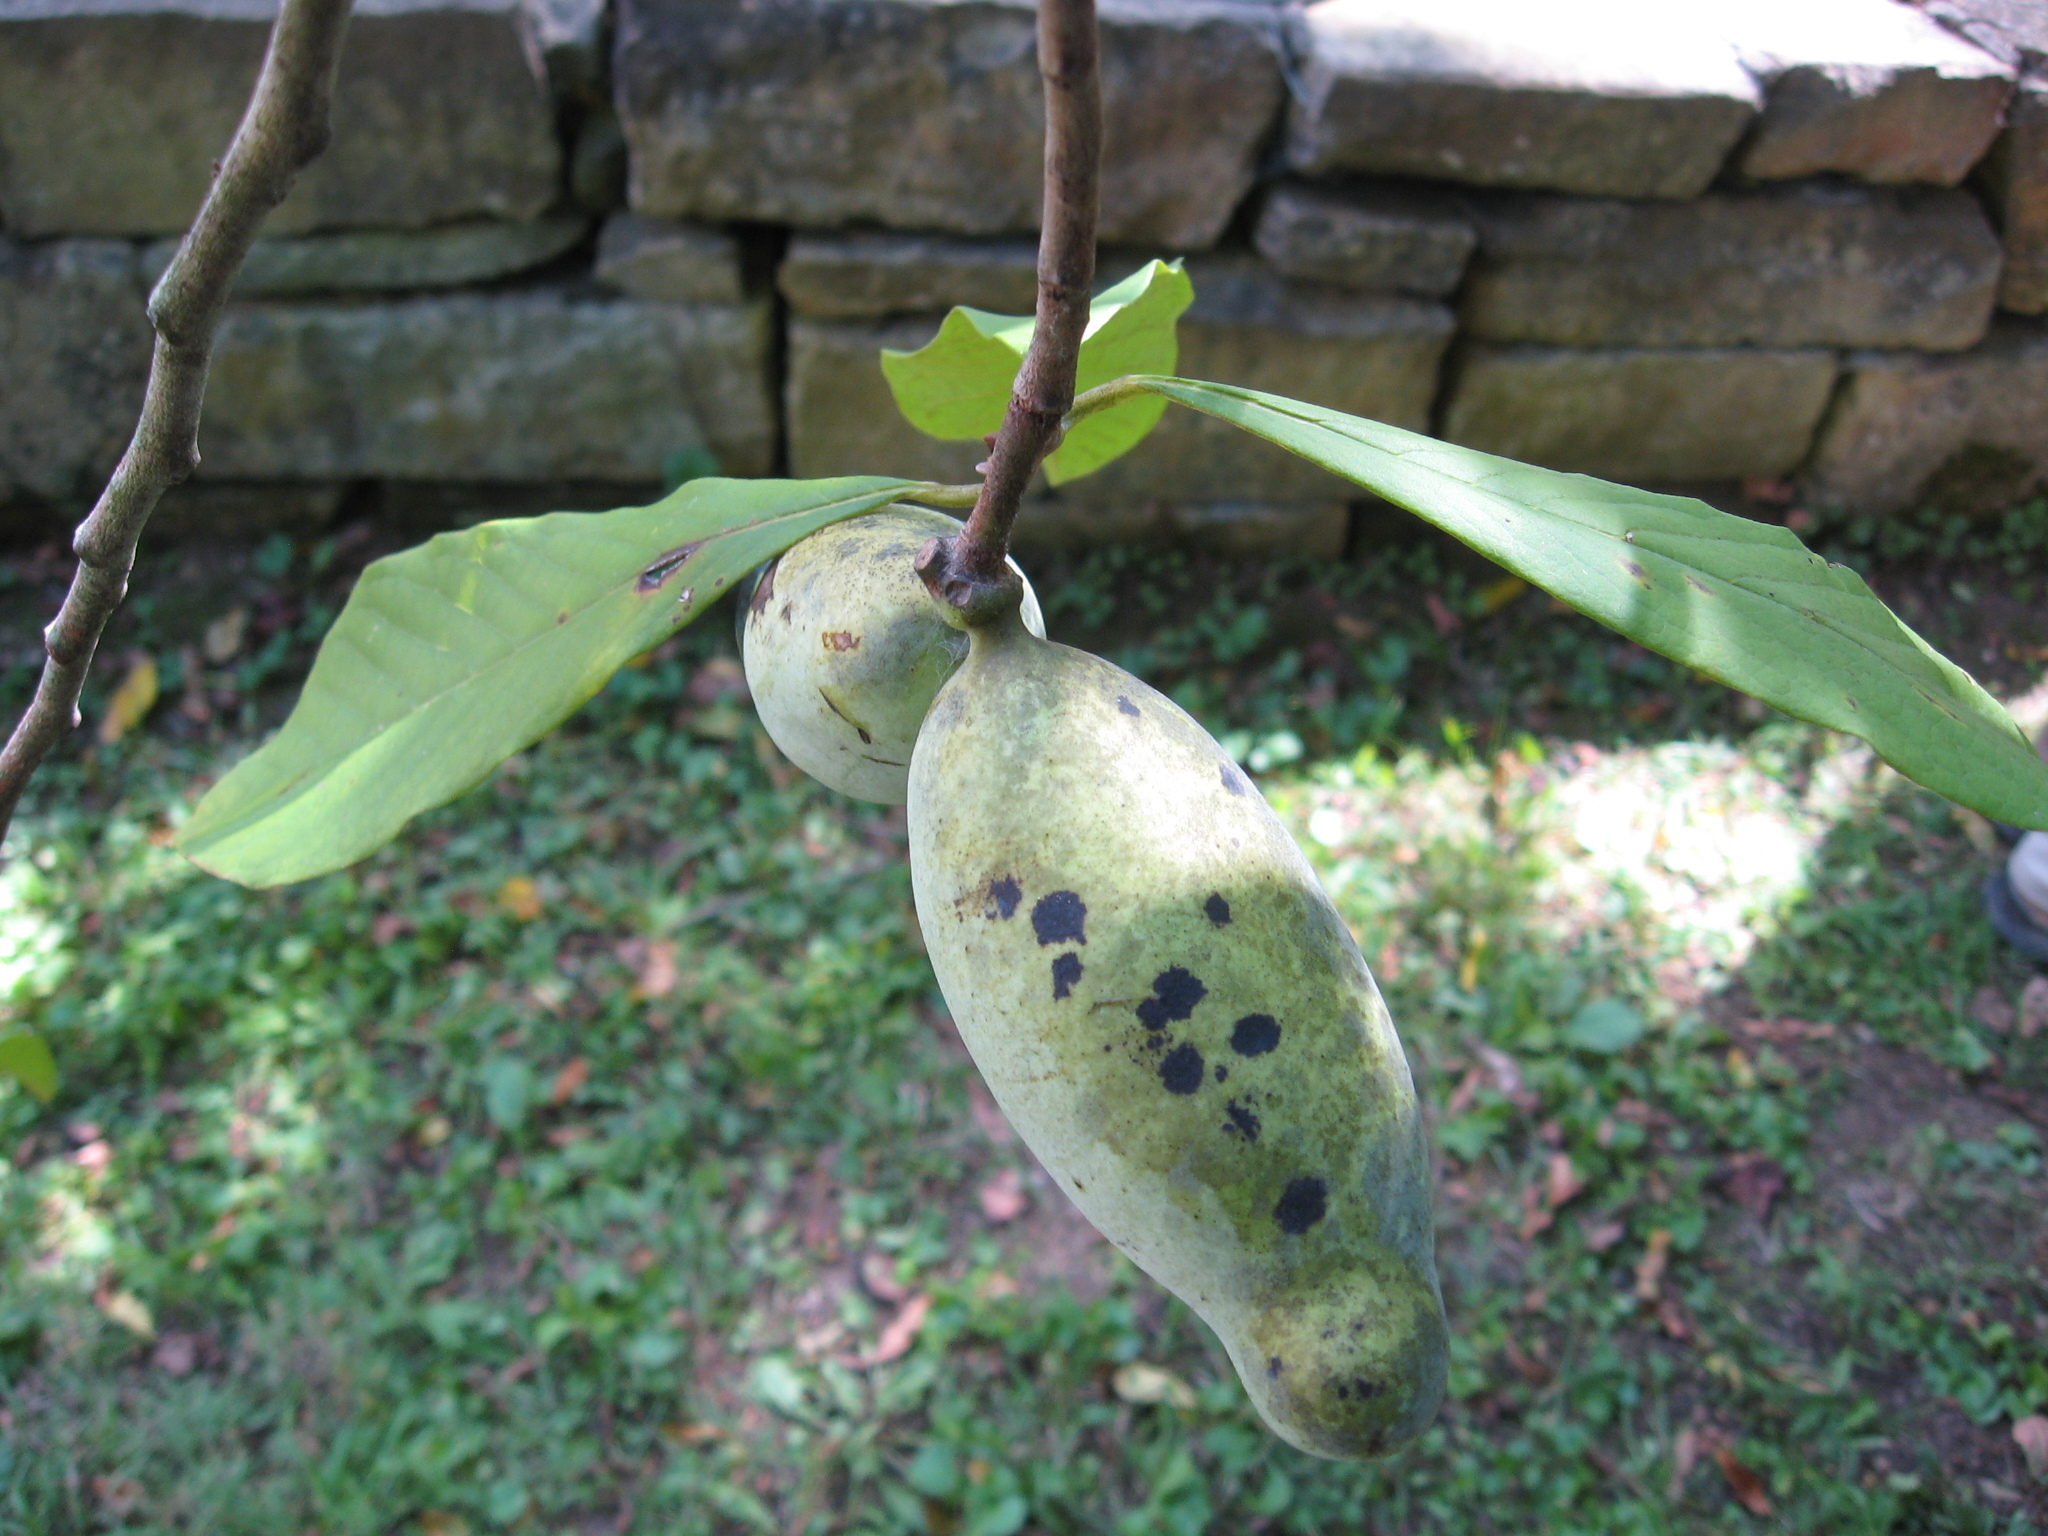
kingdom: Plantae
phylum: Tracheophyta
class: Magnoliopsida
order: Magnoliales
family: Annonaceae
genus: Asimina
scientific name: Asimina triloba
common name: Dog-banana
